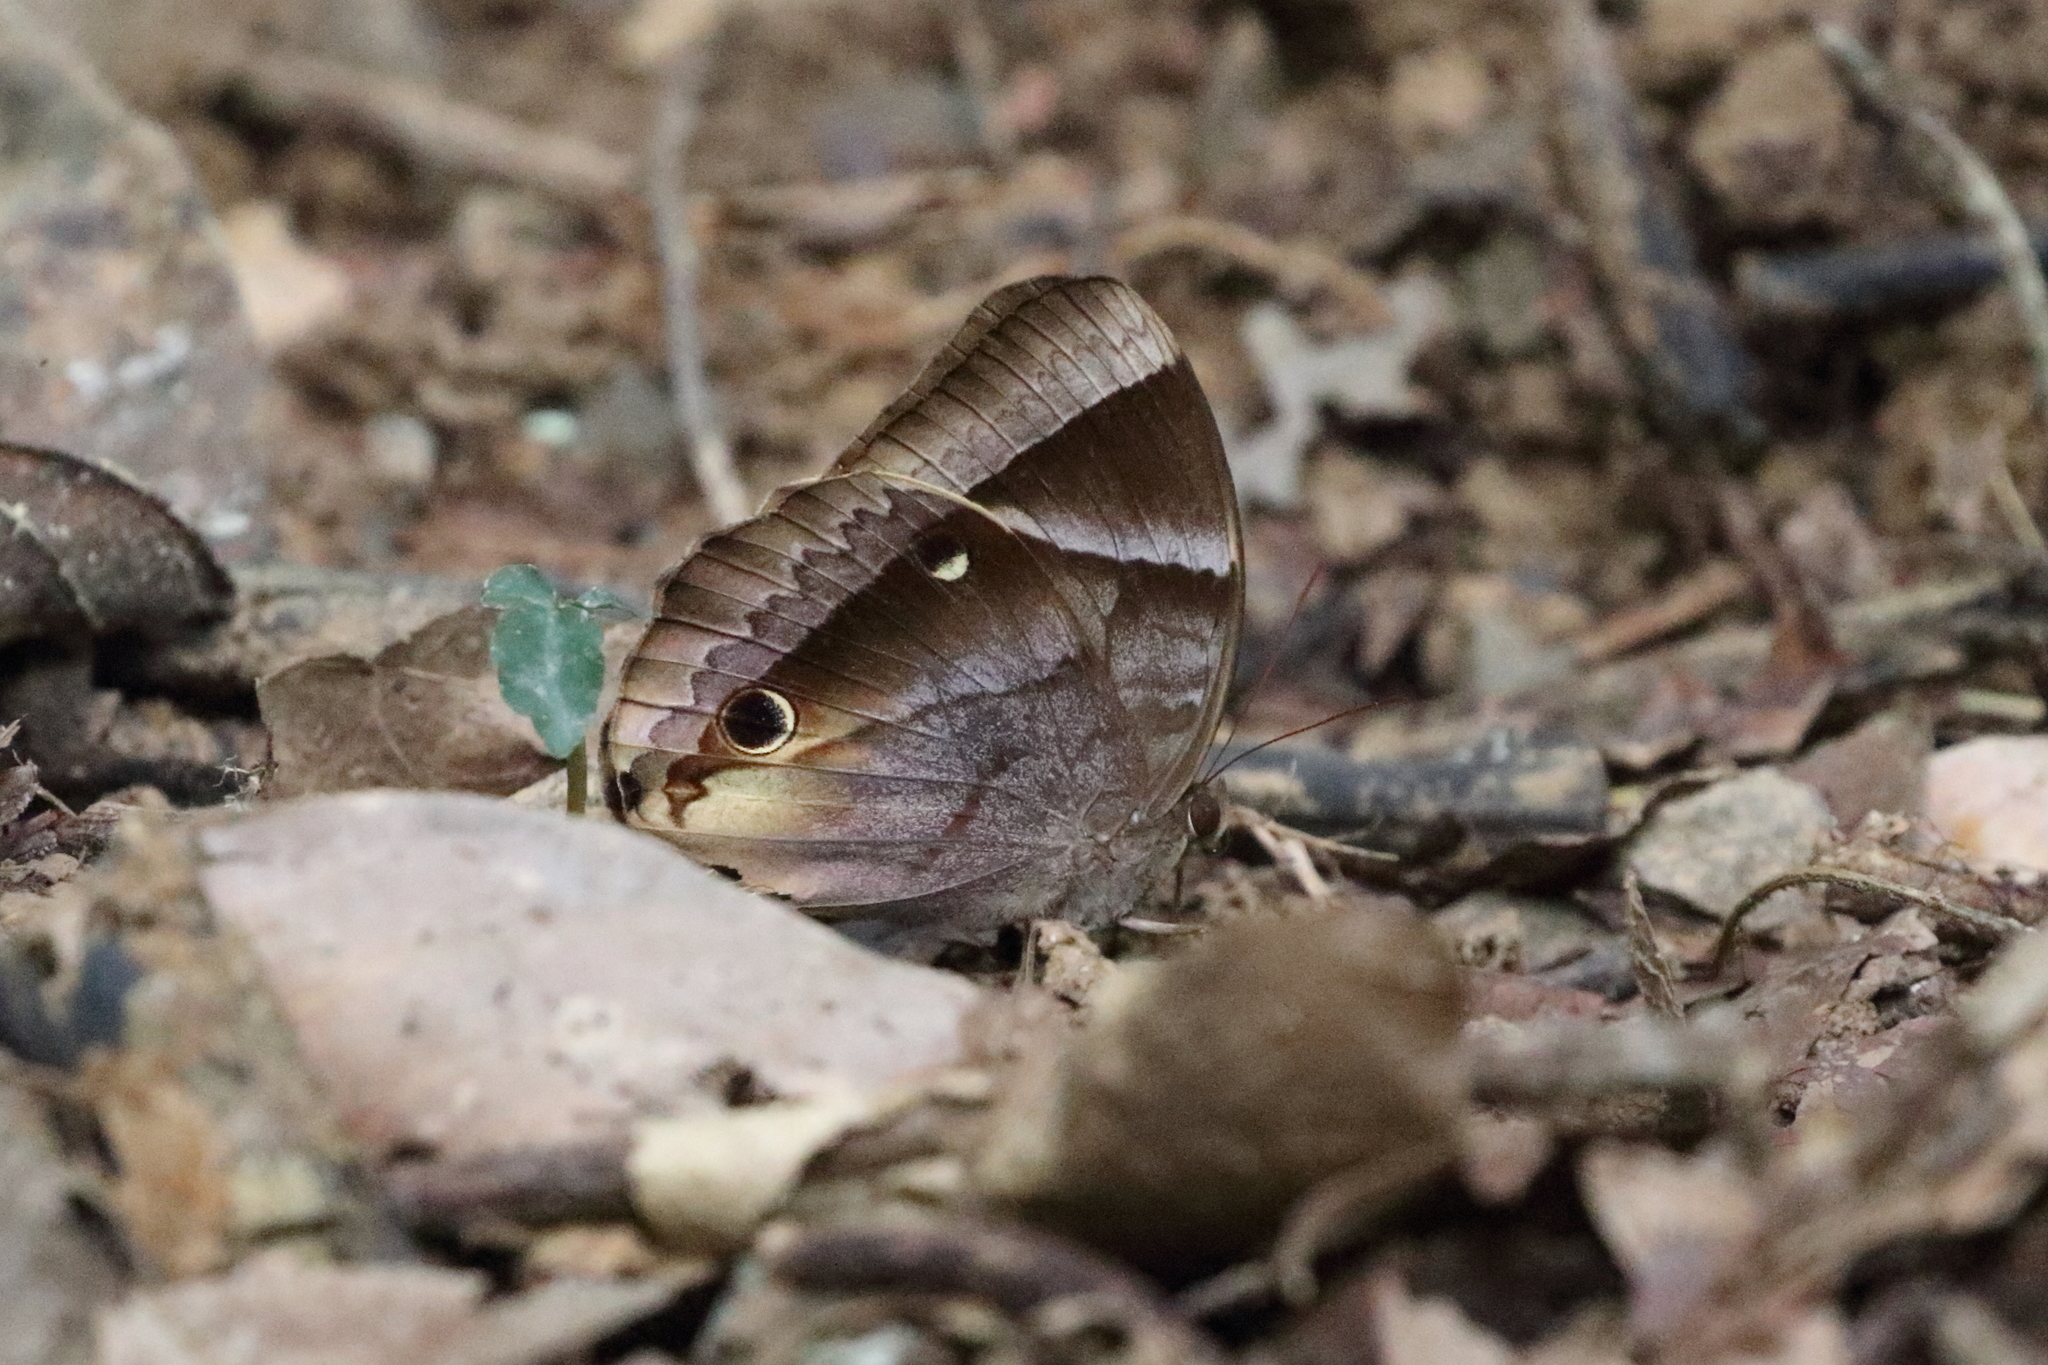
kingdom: Animalia
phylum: Arthropoda
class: Insecta
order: Lepidoptera
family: Nymphalidae
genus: Thaumantis
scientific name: Thaumantis klugius
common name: Dark blue jungle glory
